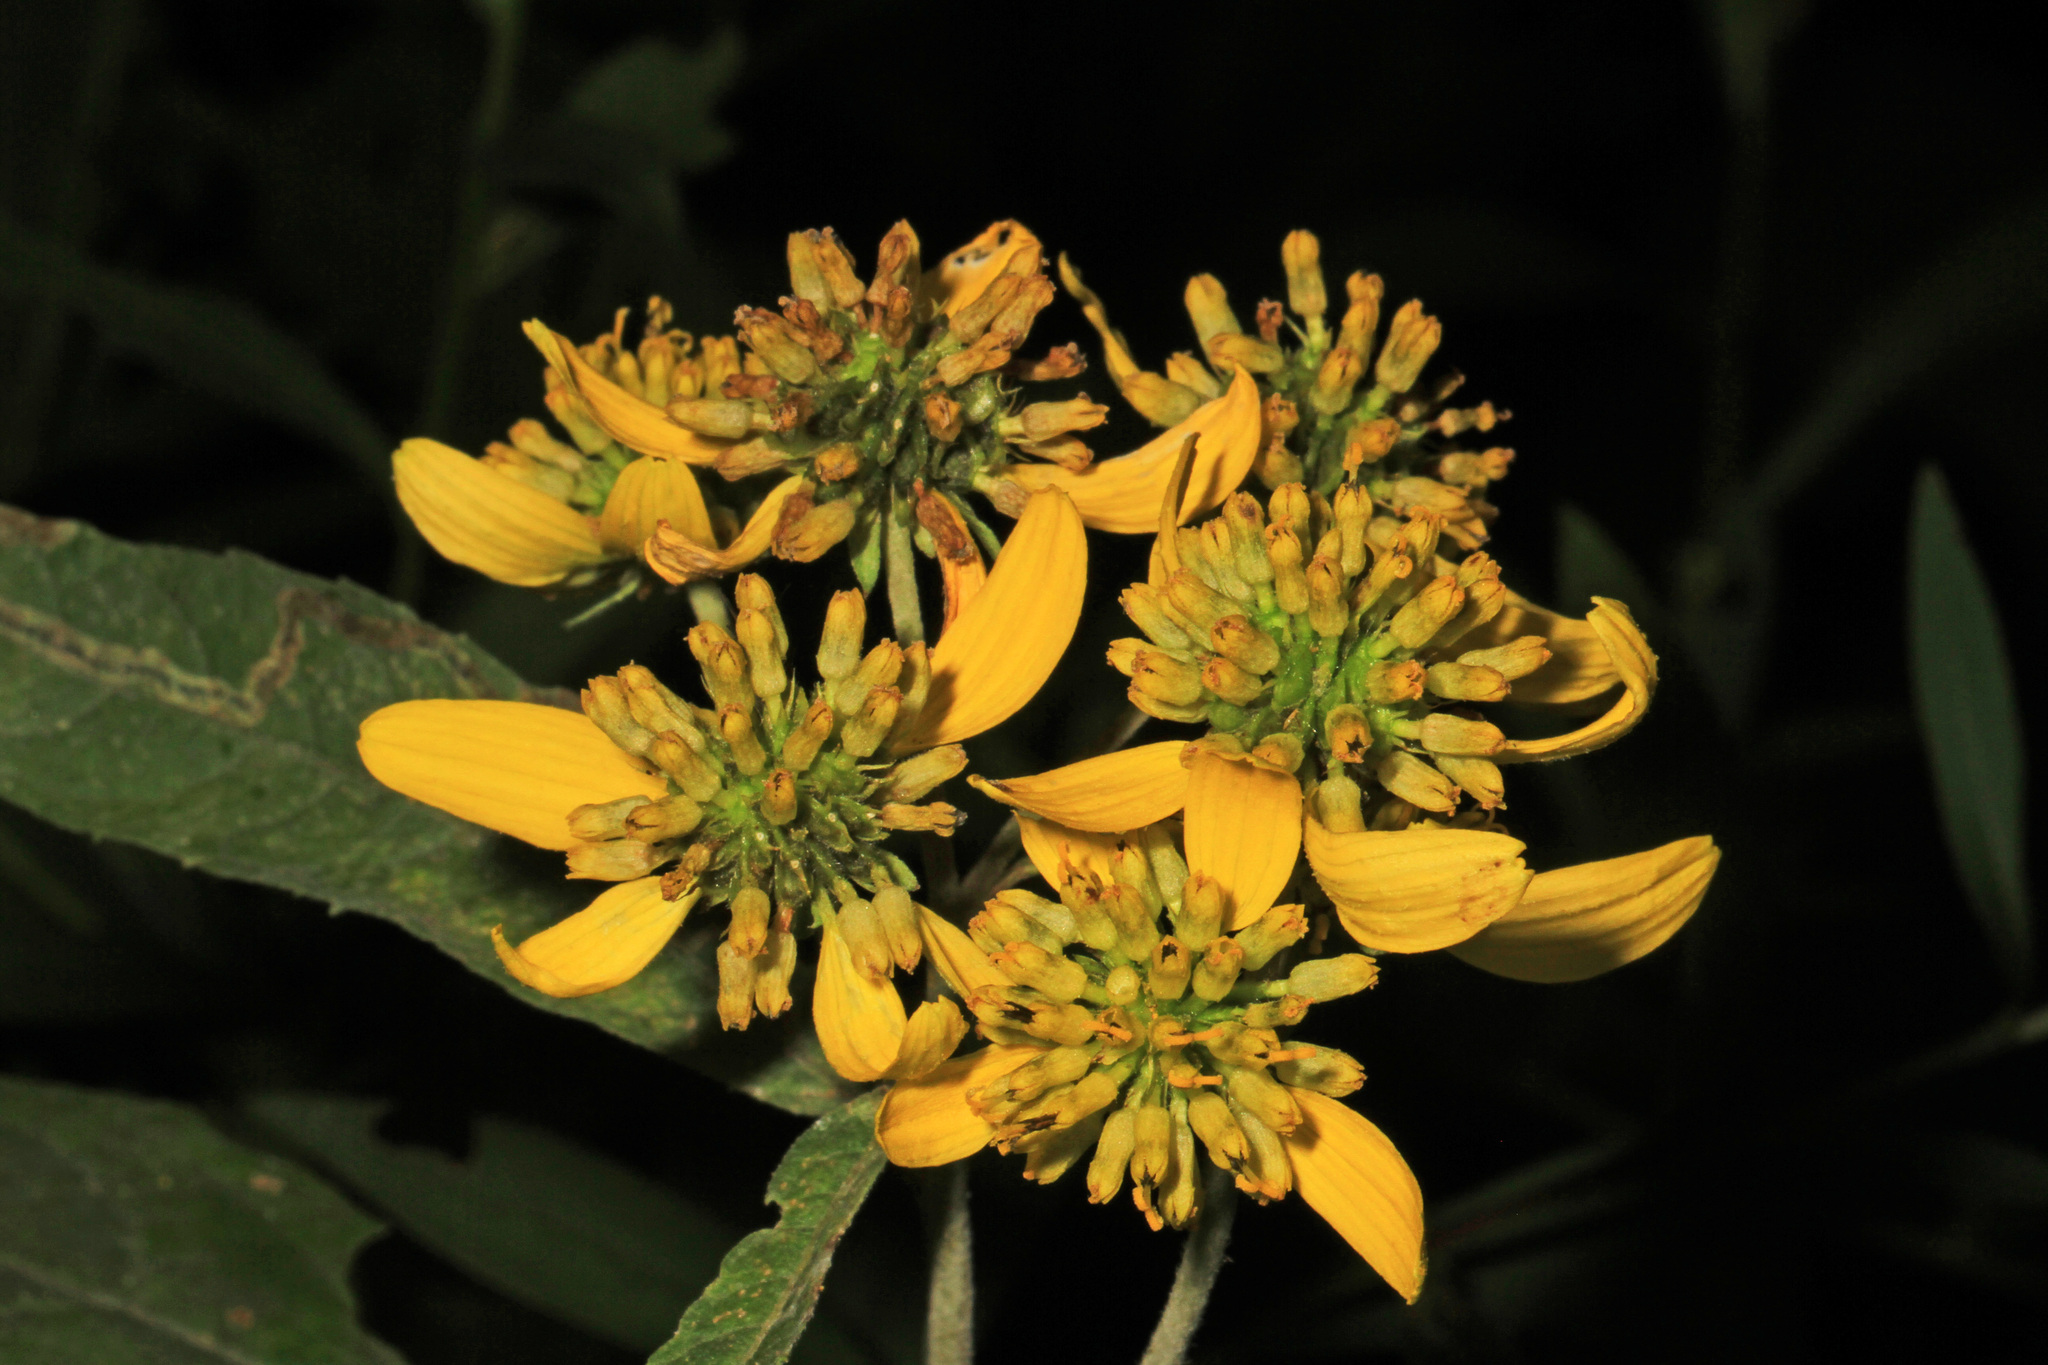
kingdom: Plantae
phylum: Tracheophyta
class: Magnoliopsida
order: Asterales
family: Asteraceae
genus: Verbesina
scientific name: Verbesina alternifolia
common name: Wingstem
